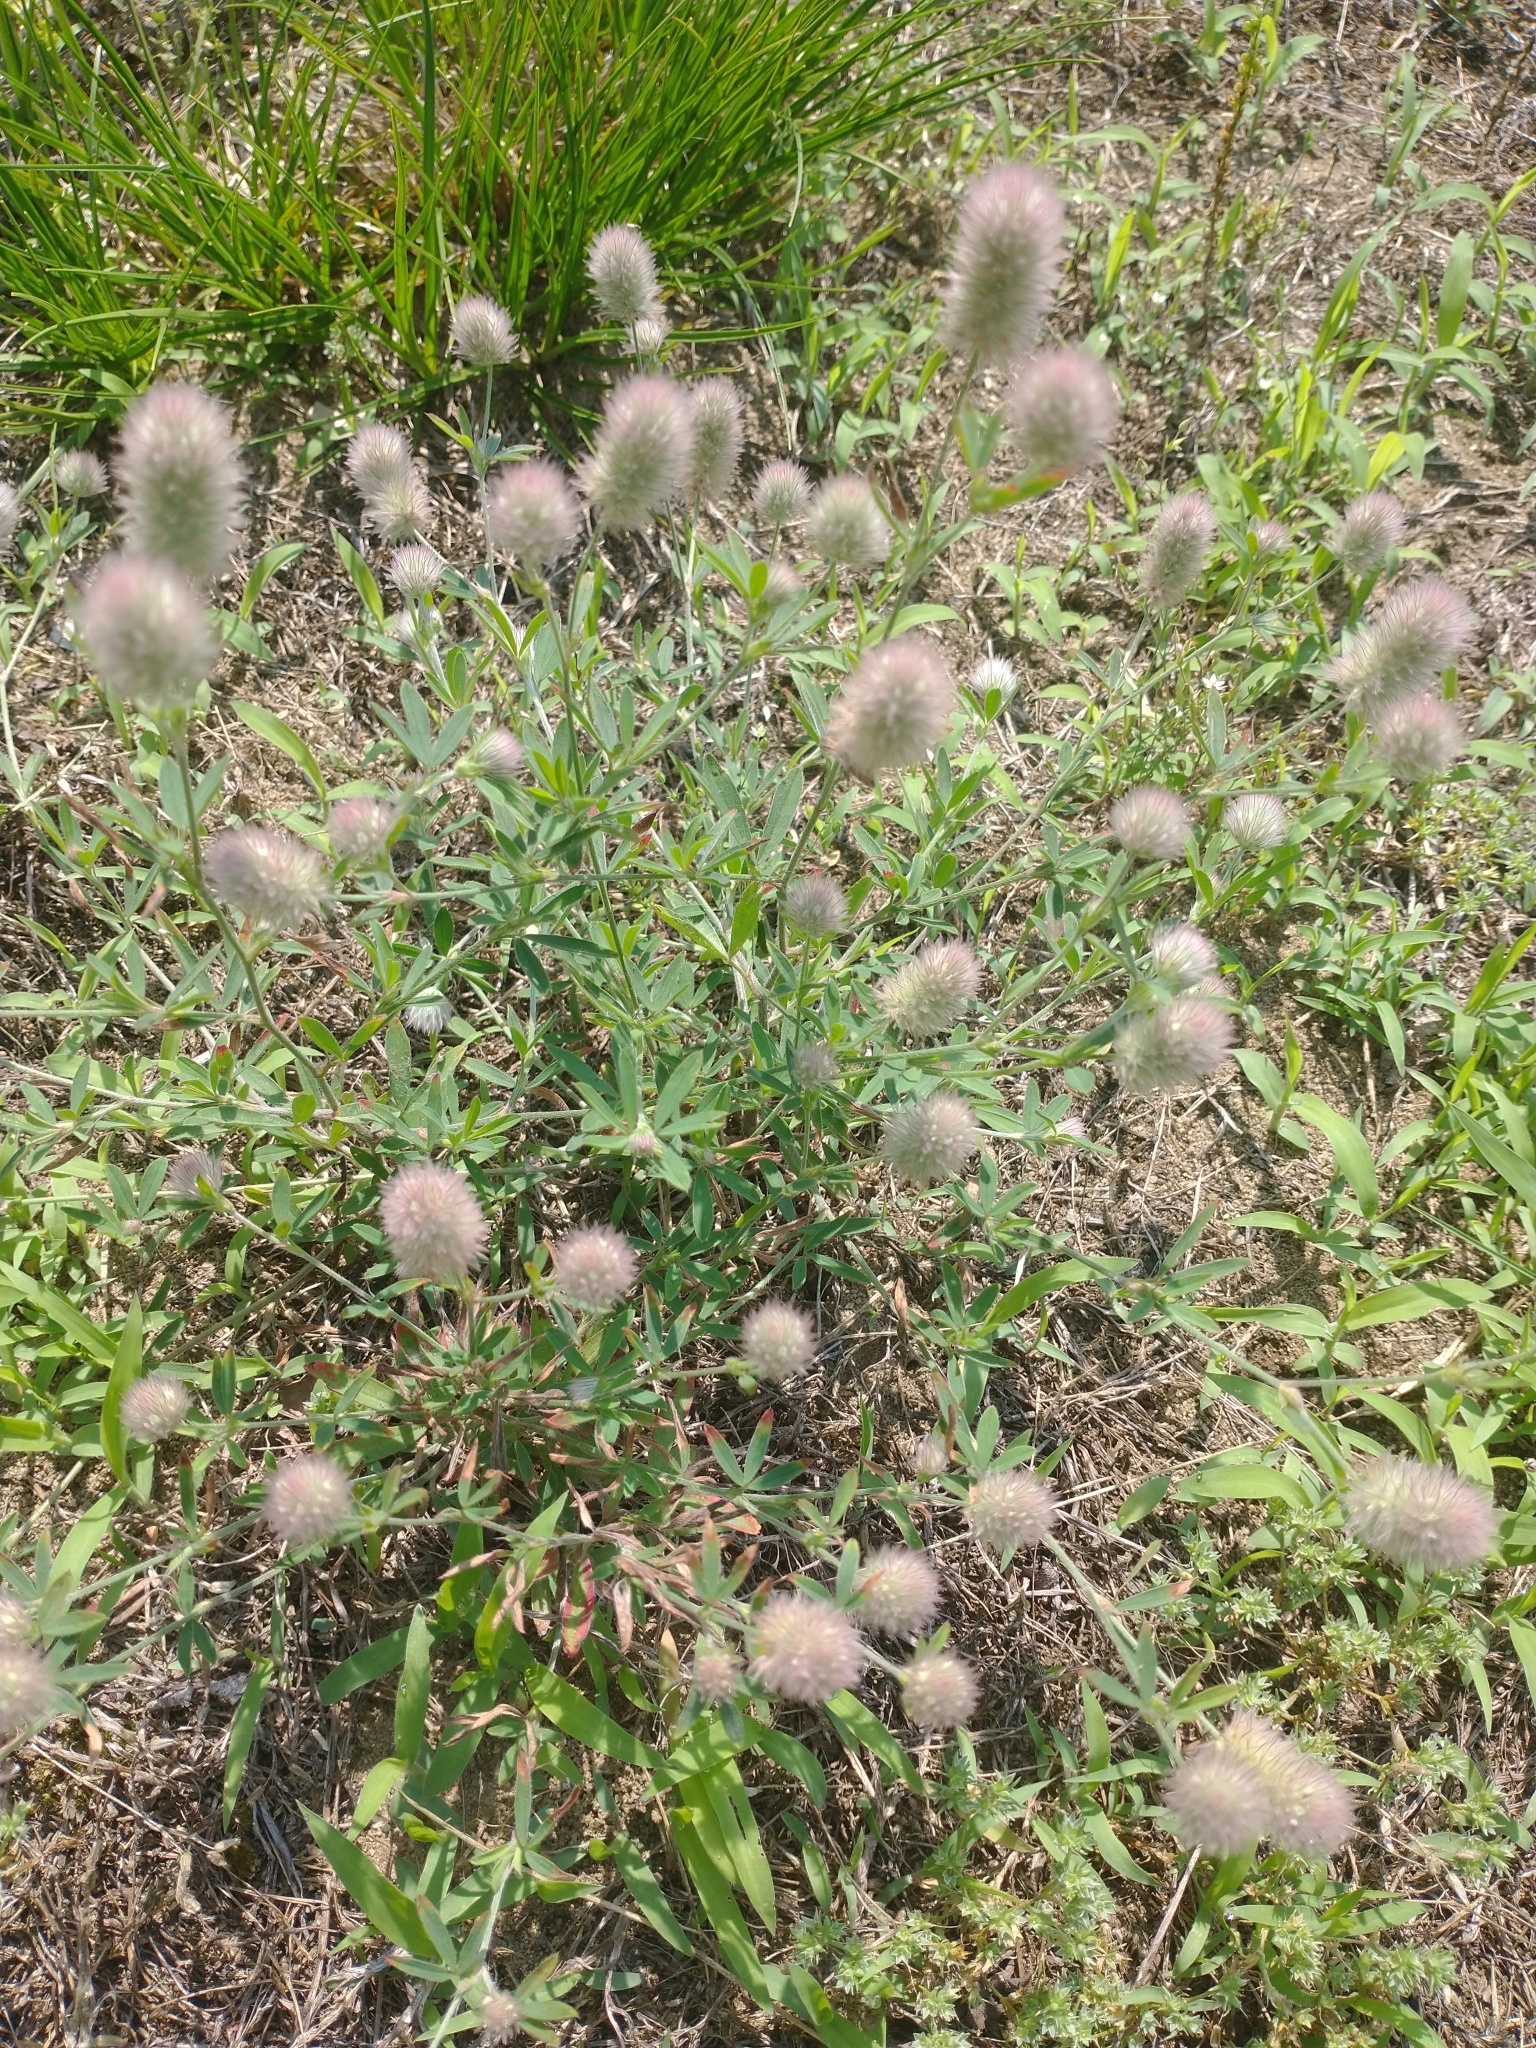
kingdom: Plantae
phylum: Tracheophyta
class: Magnoliopsida
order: Fabales
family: Fabaceae
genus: Trifolium
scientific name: Trifolium arvense
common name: Hare's-foot clover
